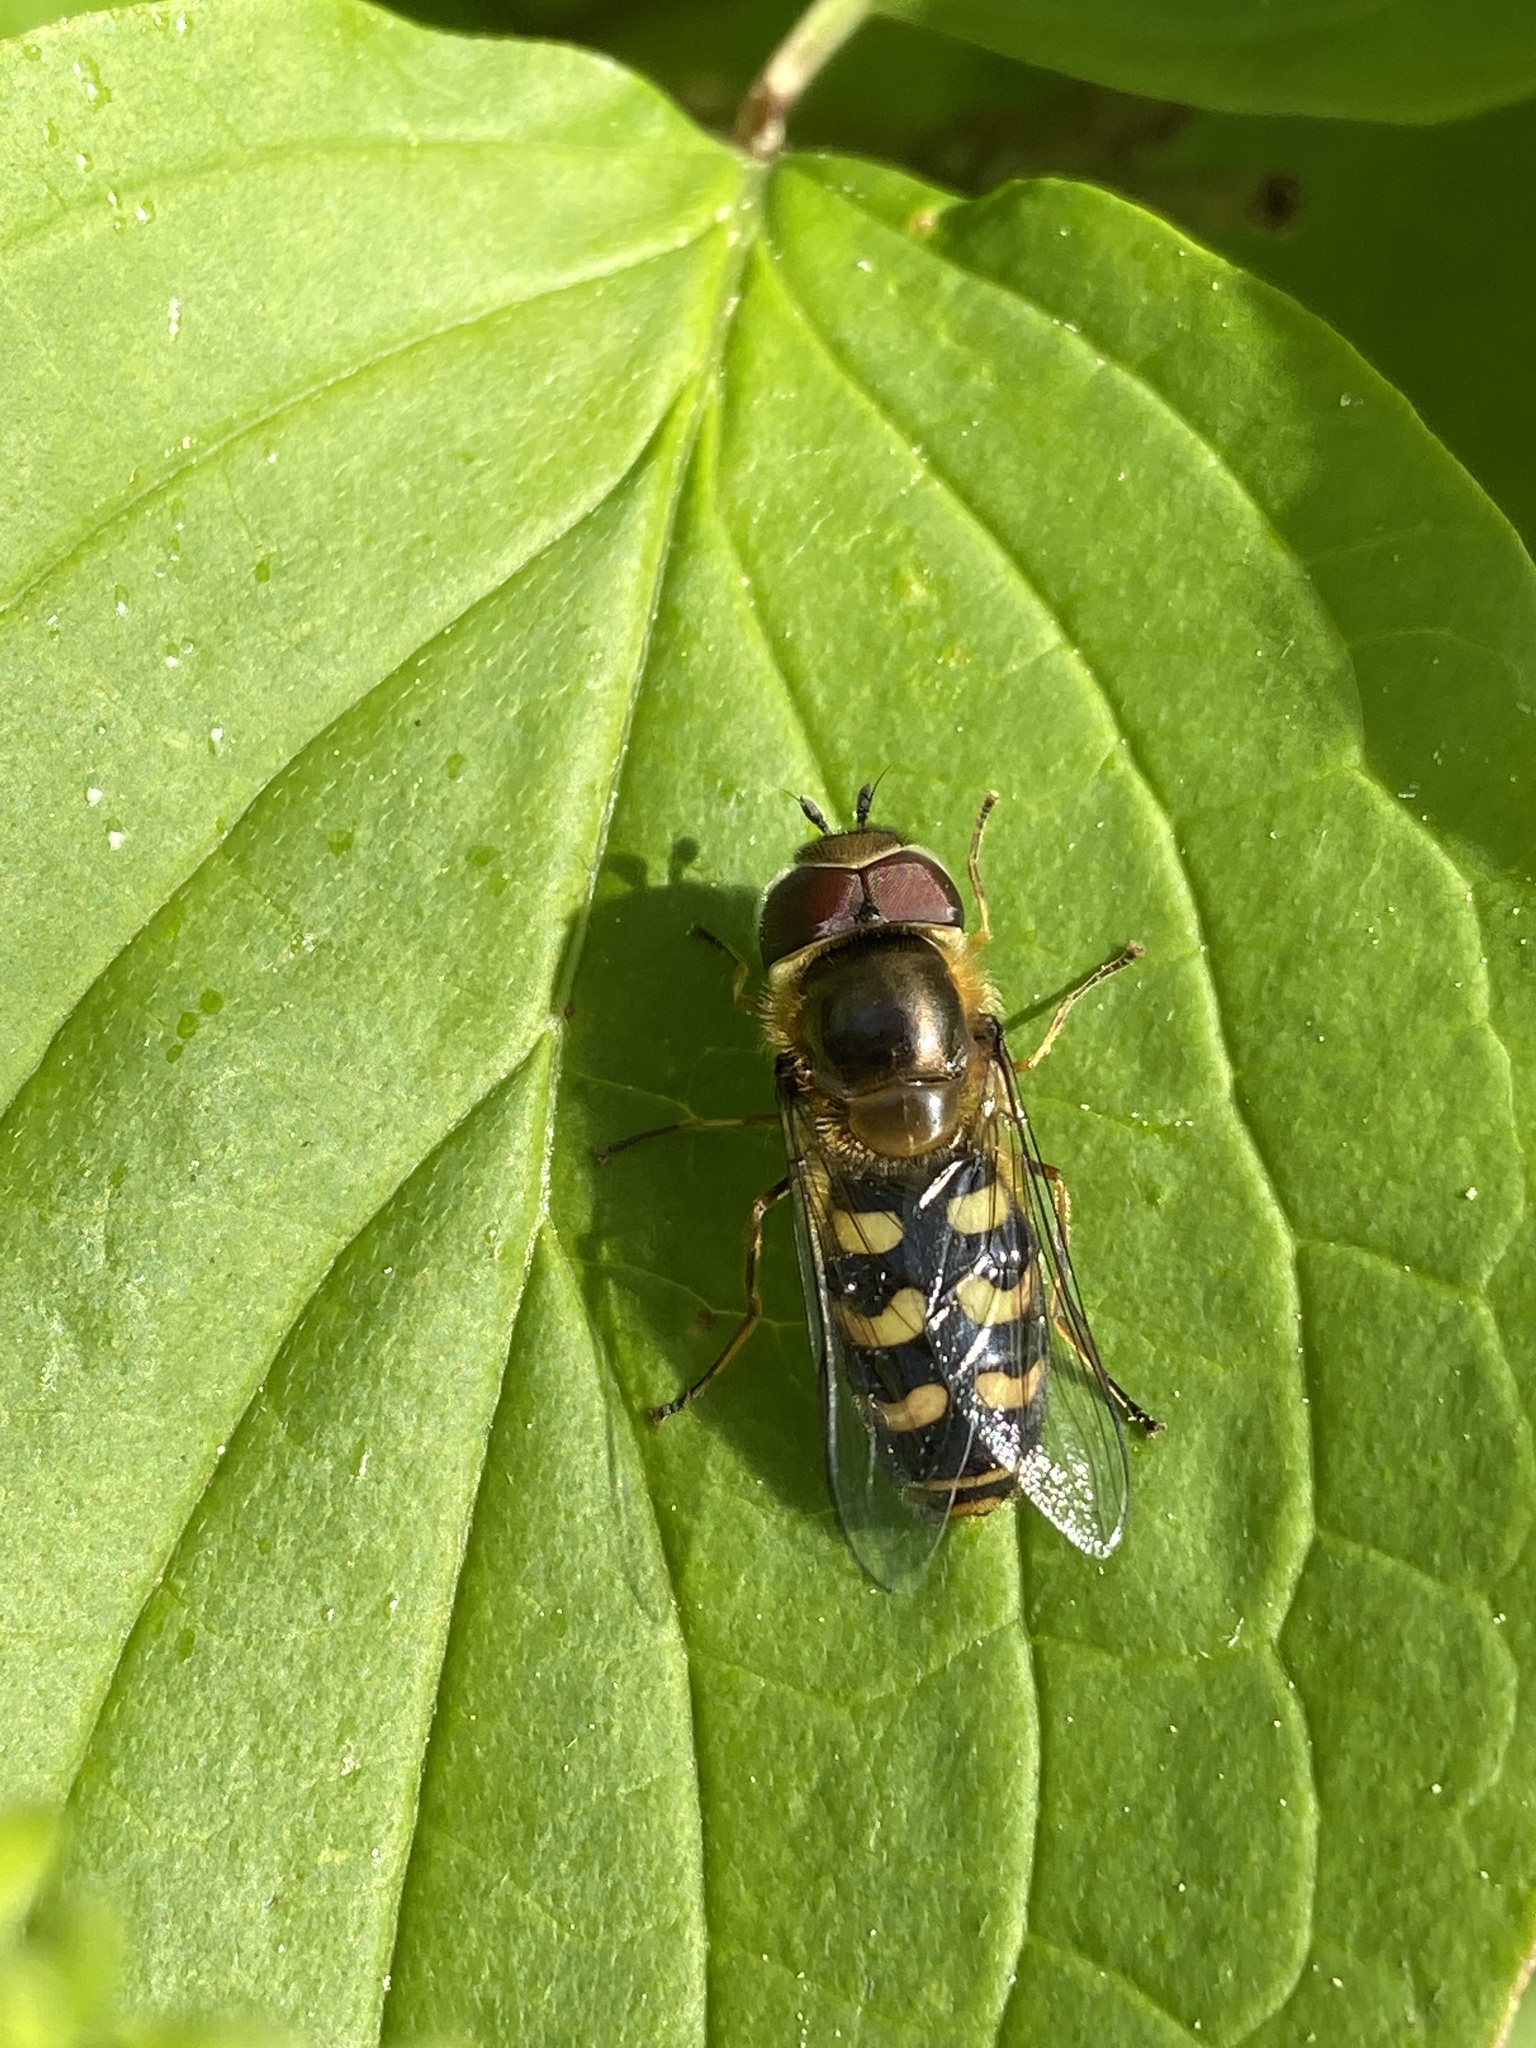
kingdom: Animalia
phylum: Arthropoda
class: Insecta
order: Diptera
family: Syrphidae
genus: Scaeva
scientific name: Scaeva selenitica
